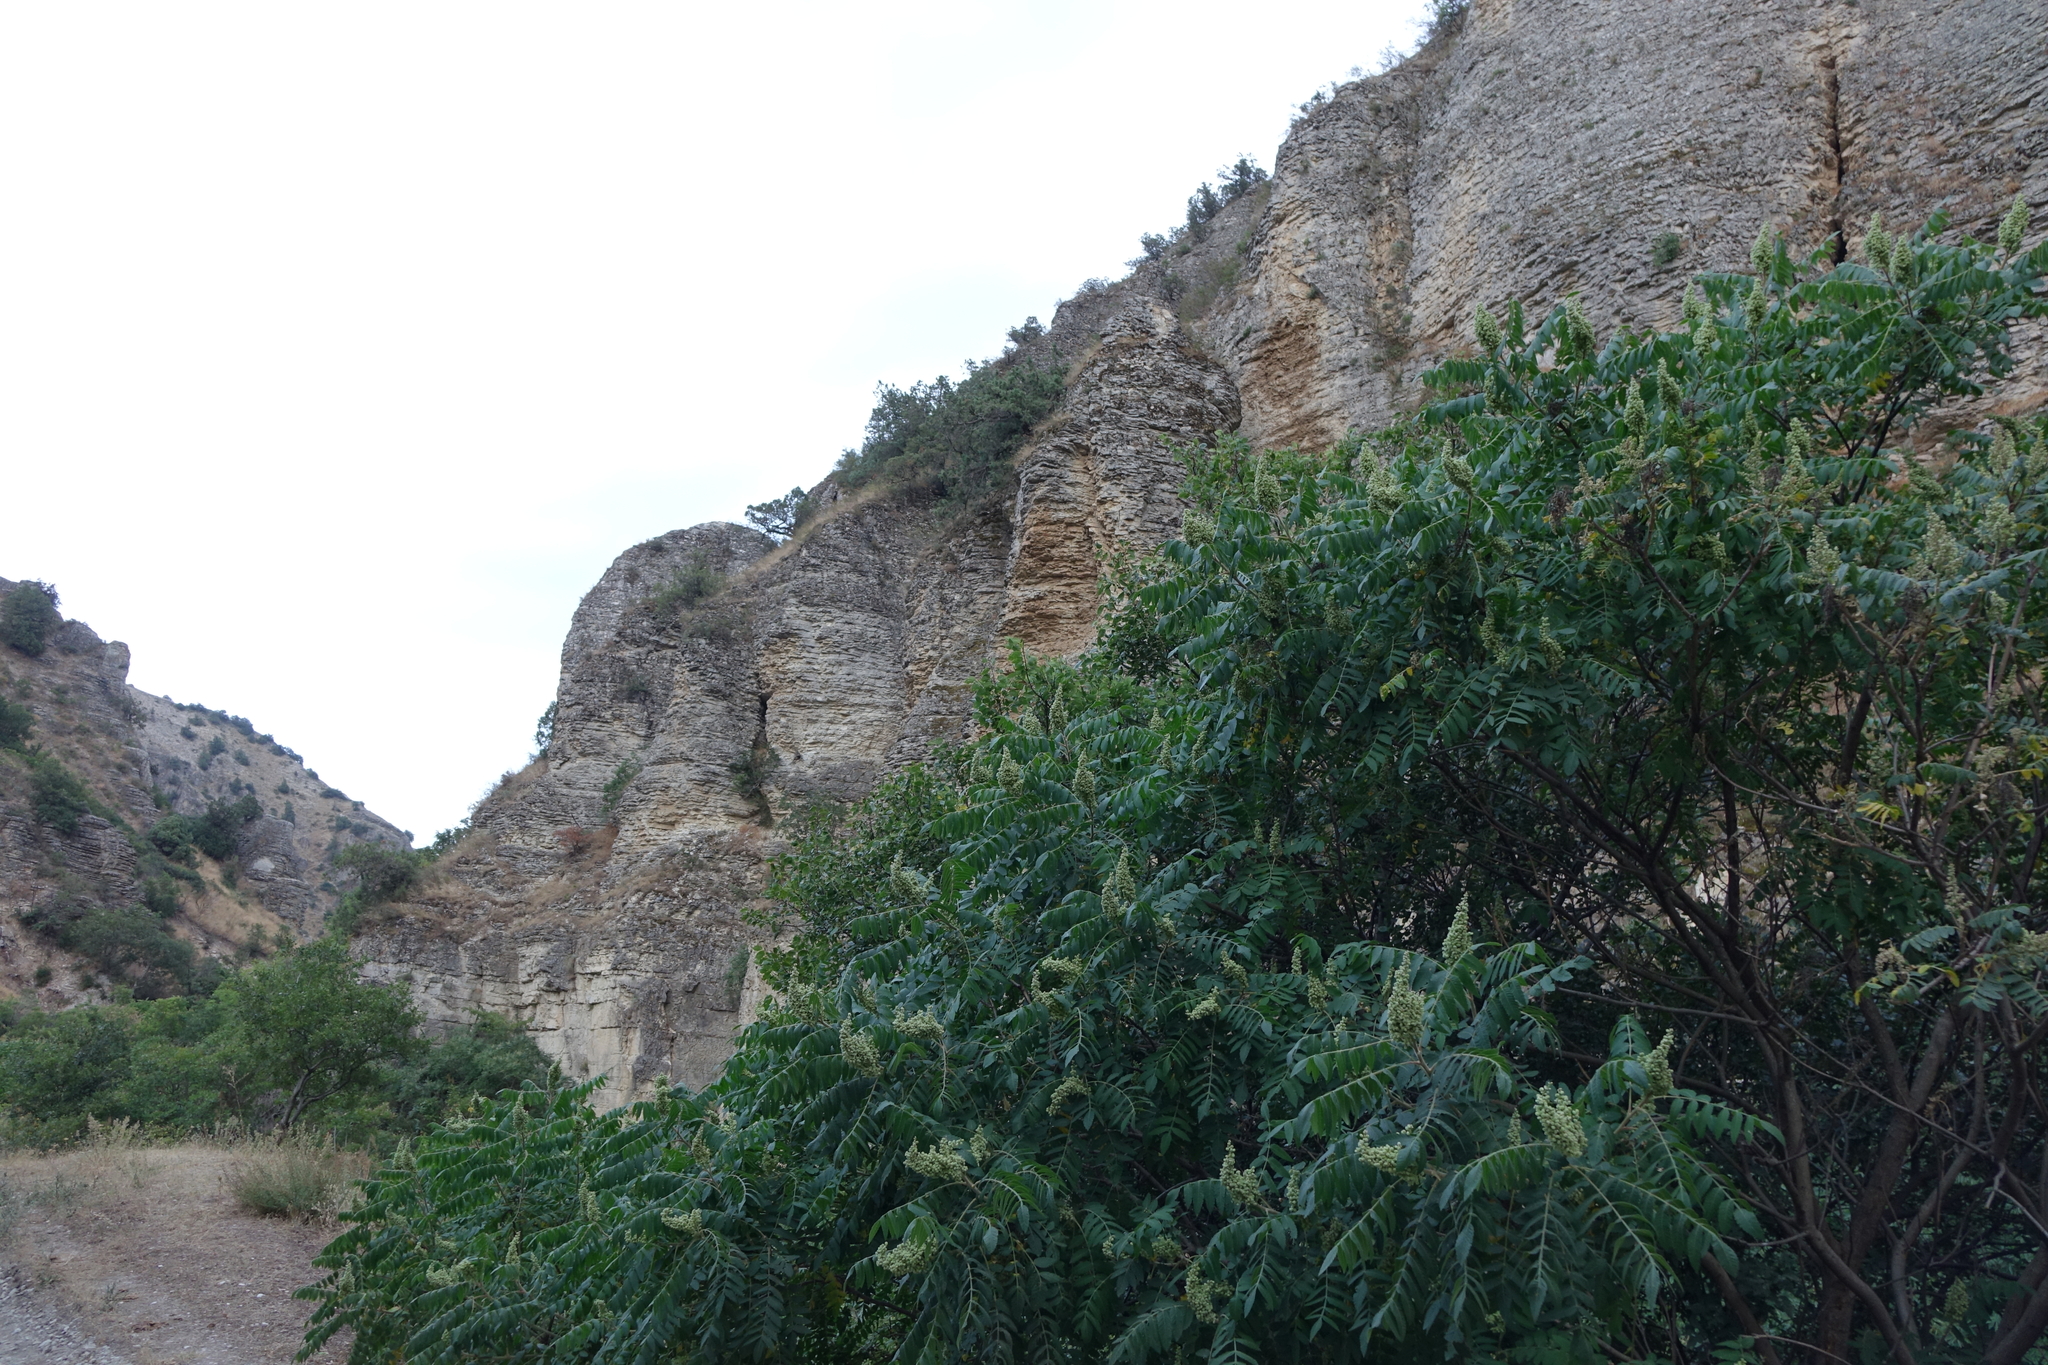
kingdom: Plantae
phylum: Tracheophyta
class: Magnoliopsida
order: Sapindales
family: Anacardiaceae
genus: Rhus
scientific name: Rhus coriaria
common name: Tanner's sumach
